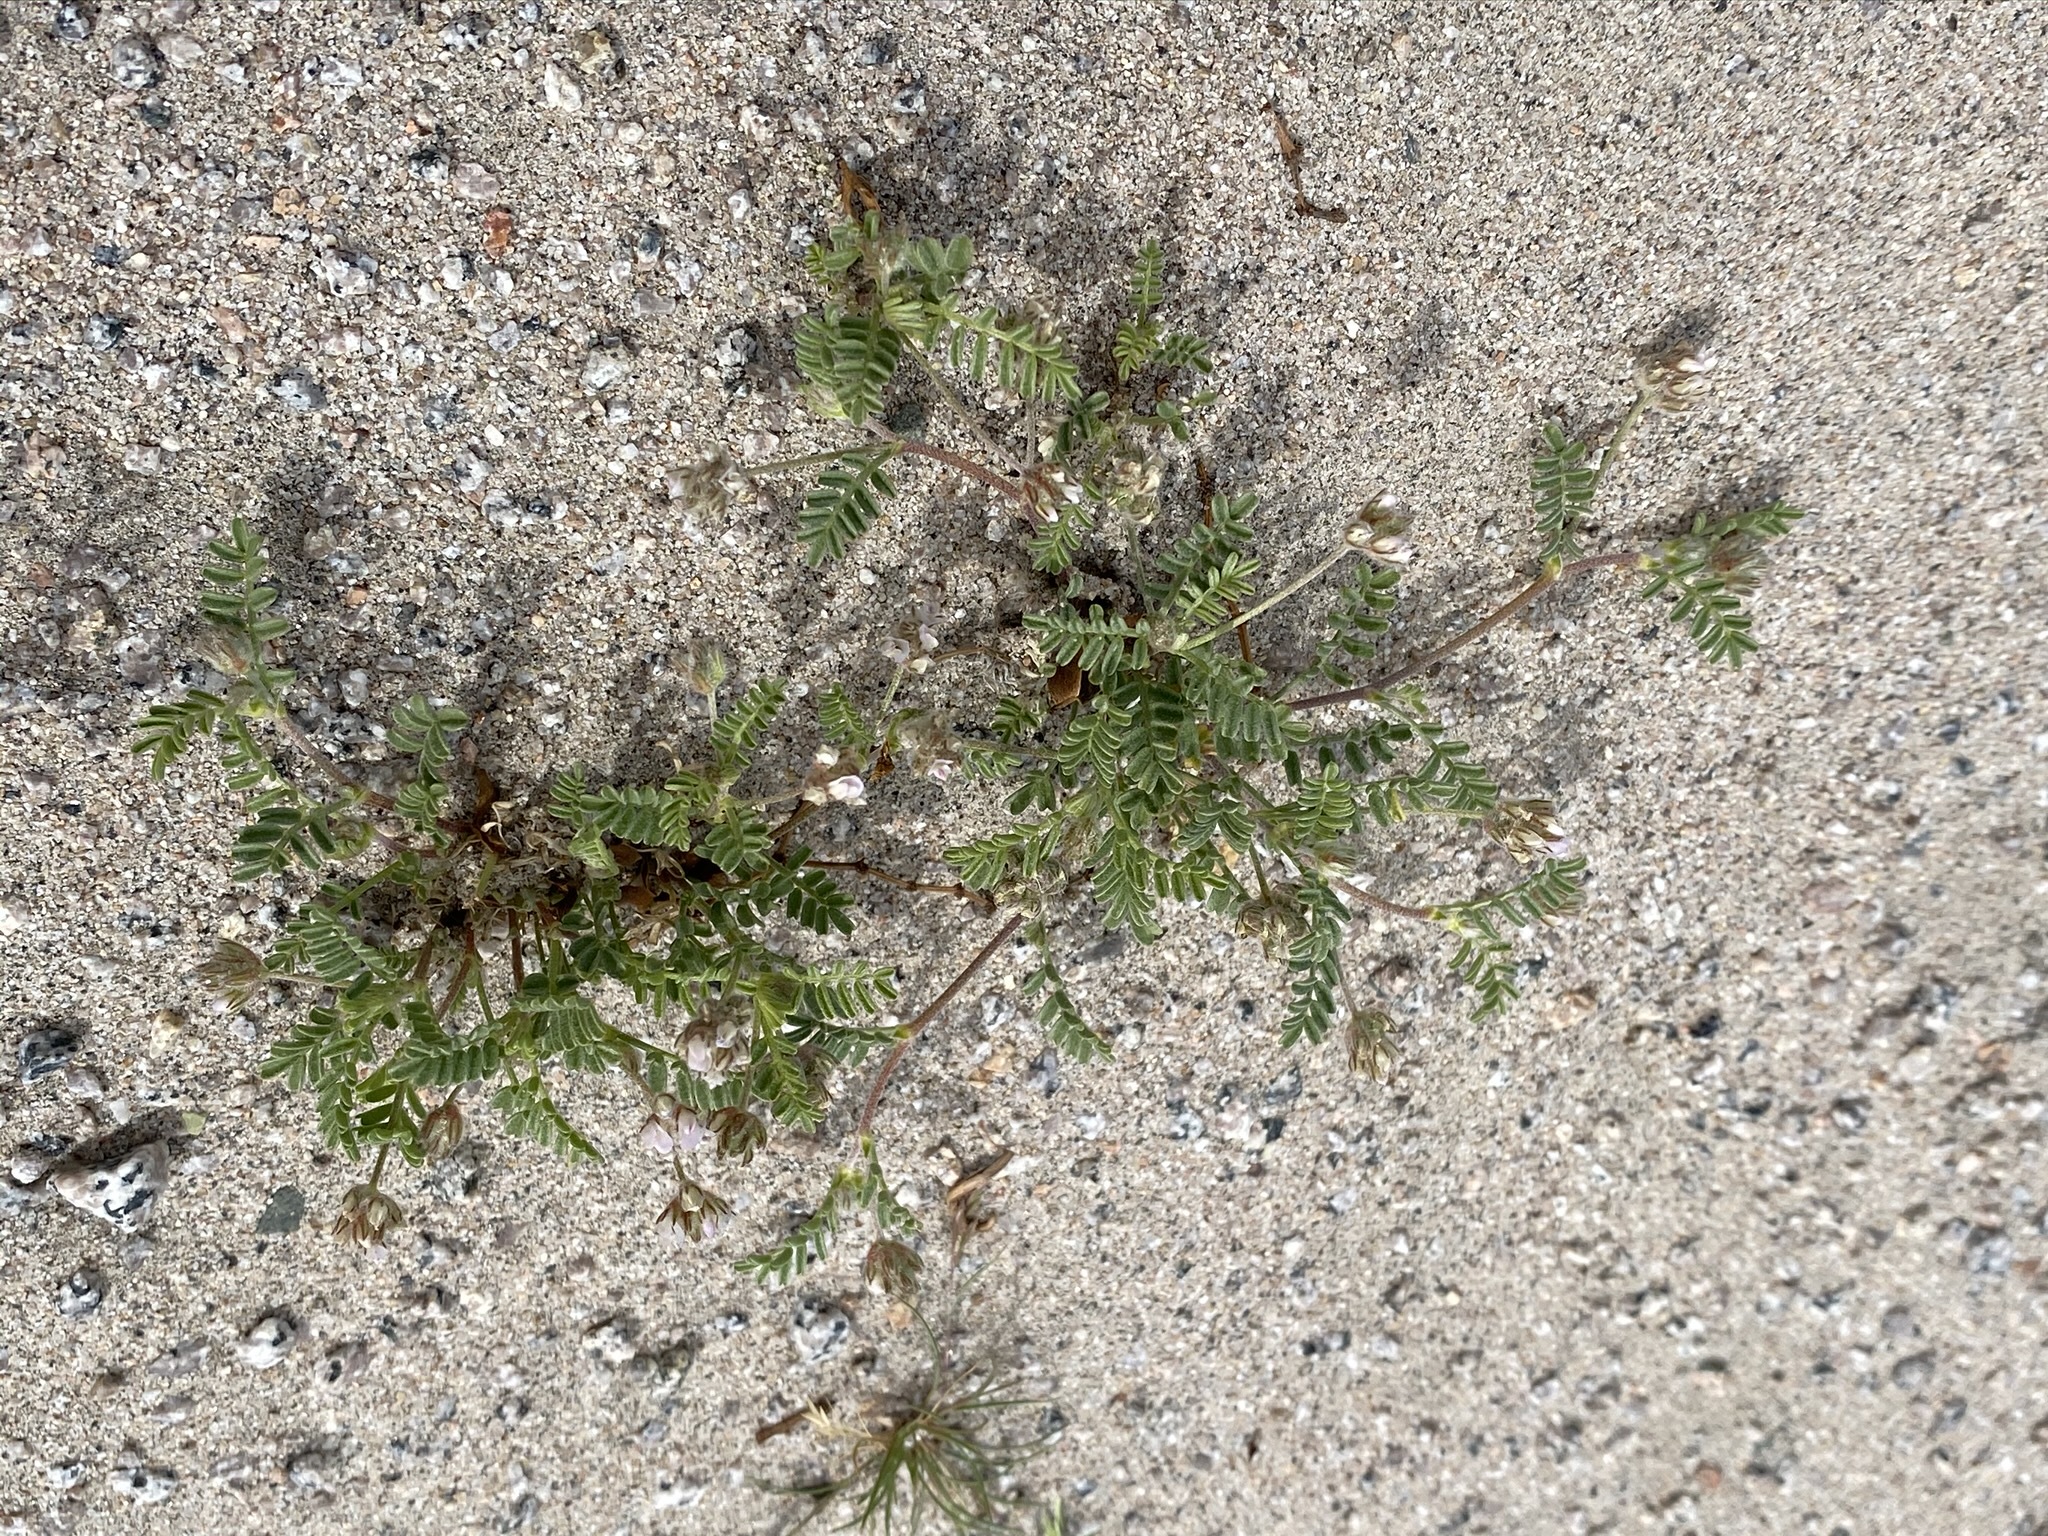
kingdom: Plantae
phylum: Tracheophyta
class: Magnoliopsida
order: Fabales
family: Fabaceae
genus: Astragalus
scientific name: Astragalus didymocarpus
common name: Dwarf white milkvetch
